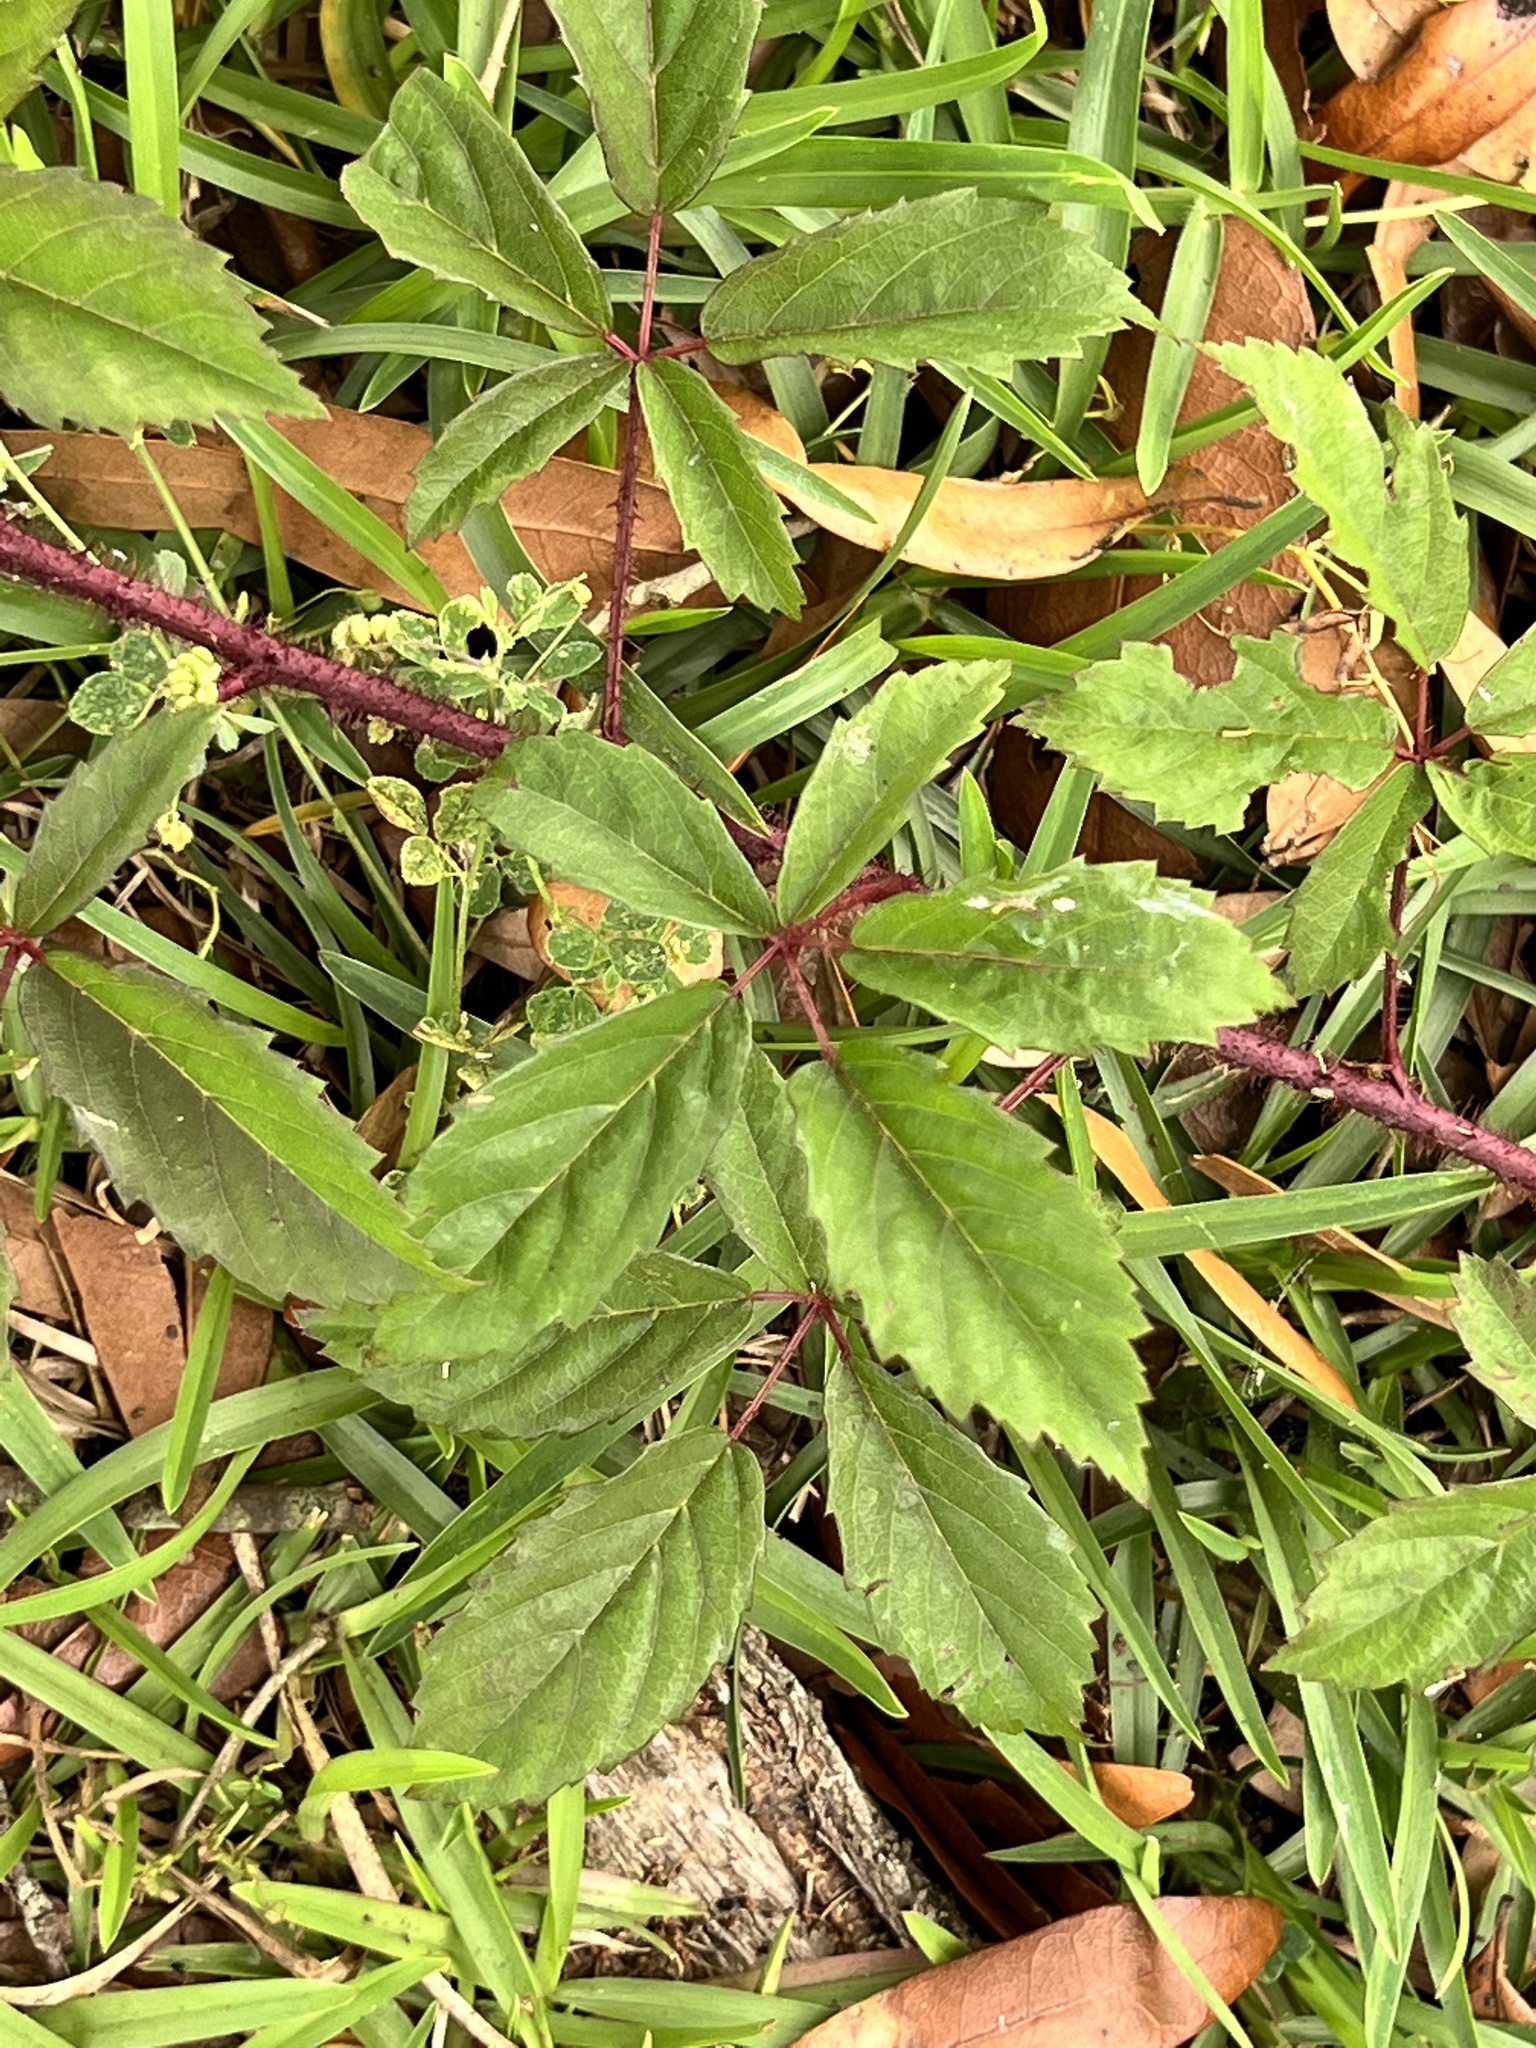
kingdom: Plantae
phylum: Tracheophyta
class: Magnoliopsida
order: Rosales
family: Rosaceae
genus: Rubus
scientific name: Rubus trivialis
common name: Southern dewberry
